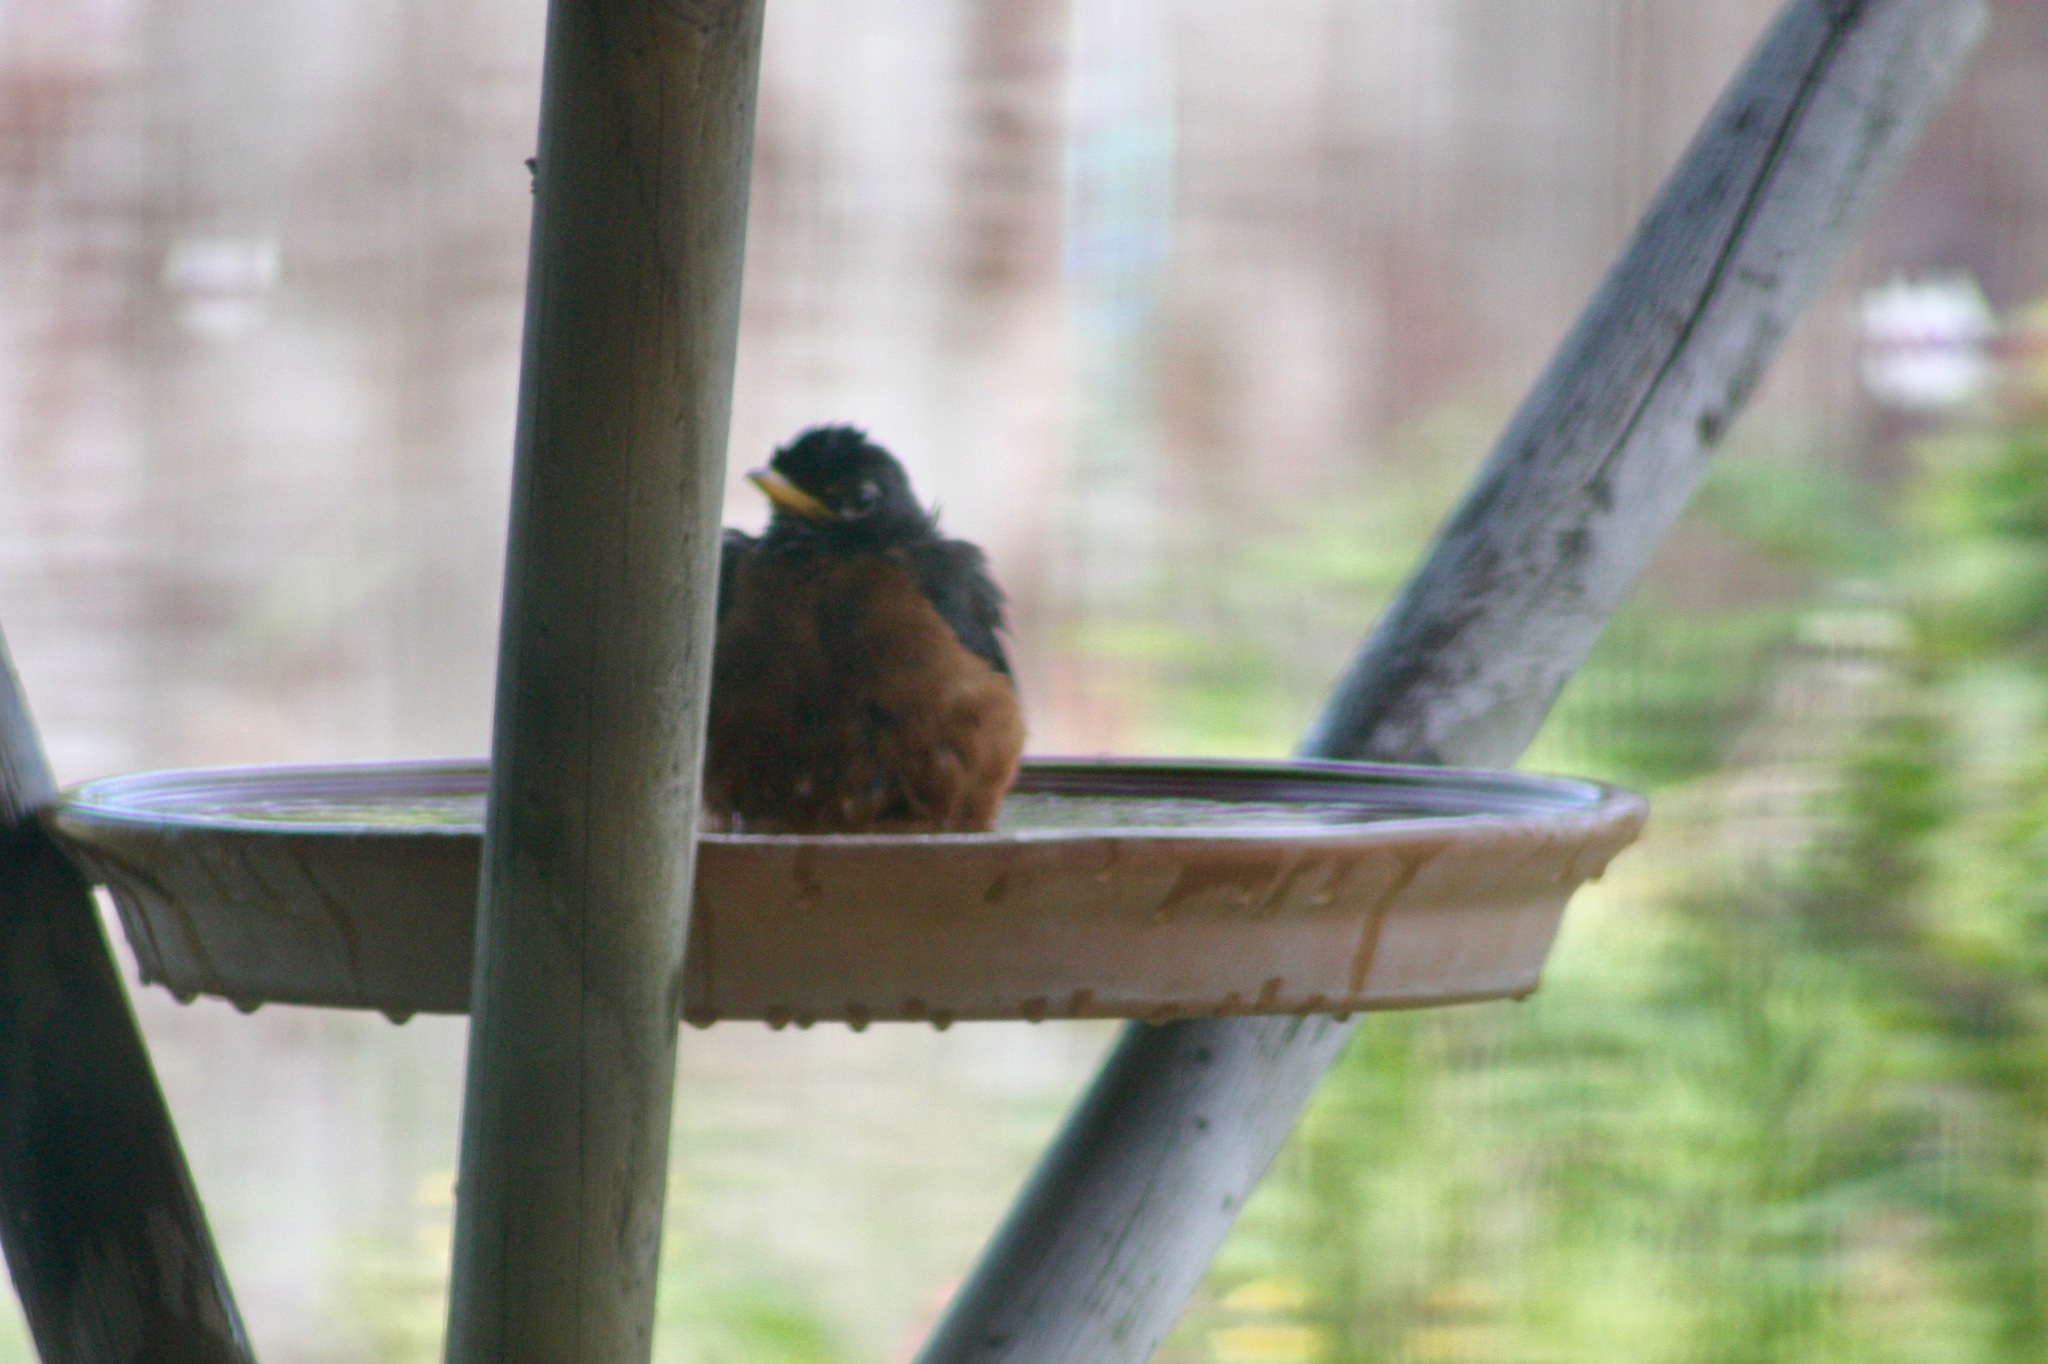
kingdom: Animalia
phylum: Chordata
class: Aves
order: Passeriformes
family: Turdidae
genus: Turdus
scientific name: Turdus migratorius
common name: American robin
